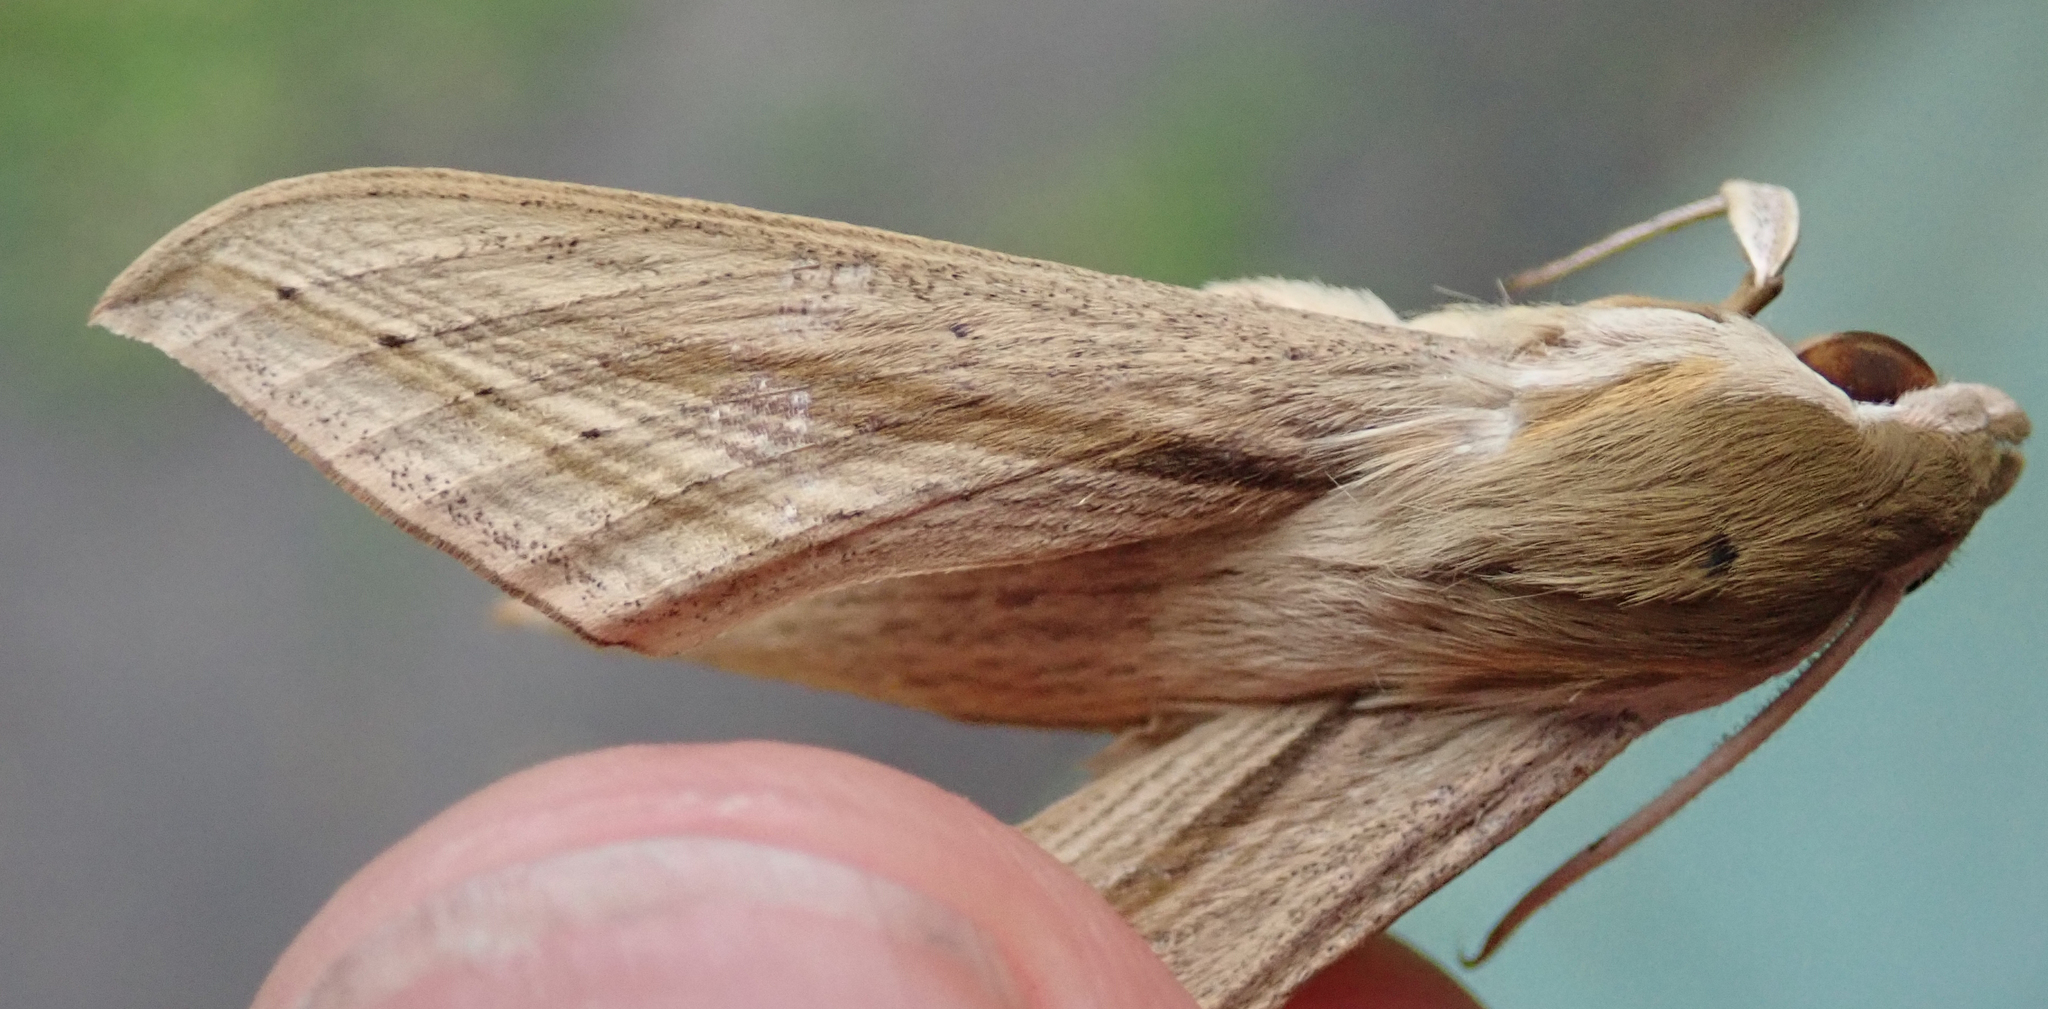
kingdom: Animalia
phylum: Arthropoda
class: Insecta
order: Lepidoptera
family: Sphingidae
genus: Hippotion
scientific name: Hippotion balsaminae
